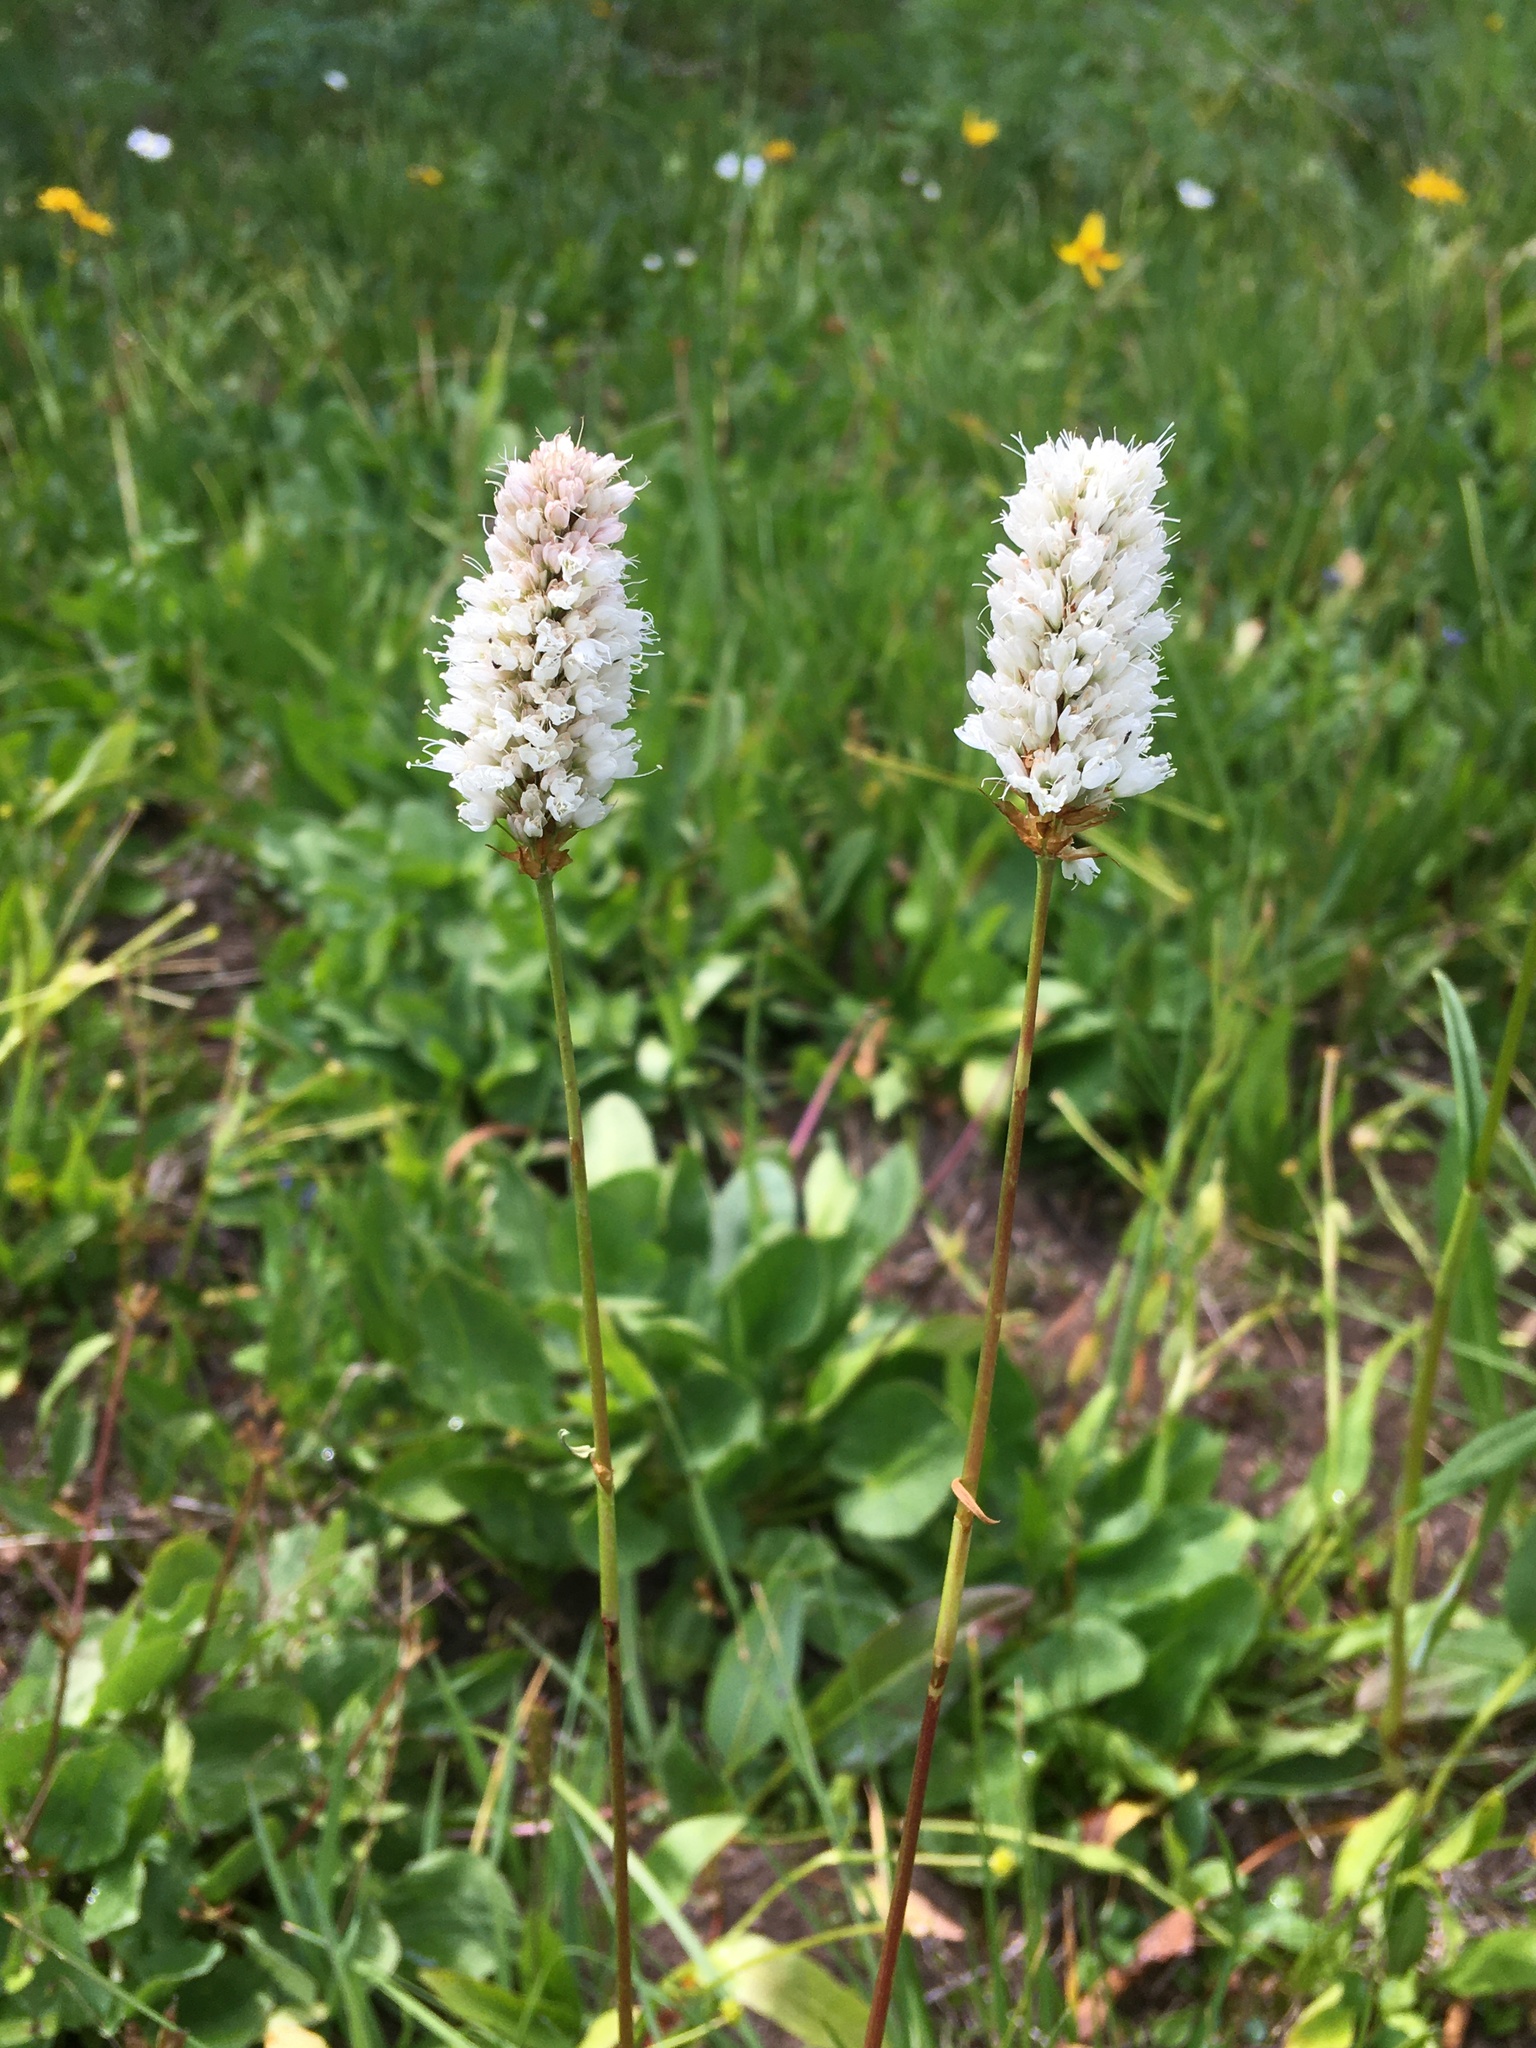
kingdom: Plantae
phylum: Tracheophyta
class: Magnoliopsida
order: Caryophyllales
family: Polygonaceae
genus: Bistorta
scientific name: Bistorta bistortoides
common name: American bistort
